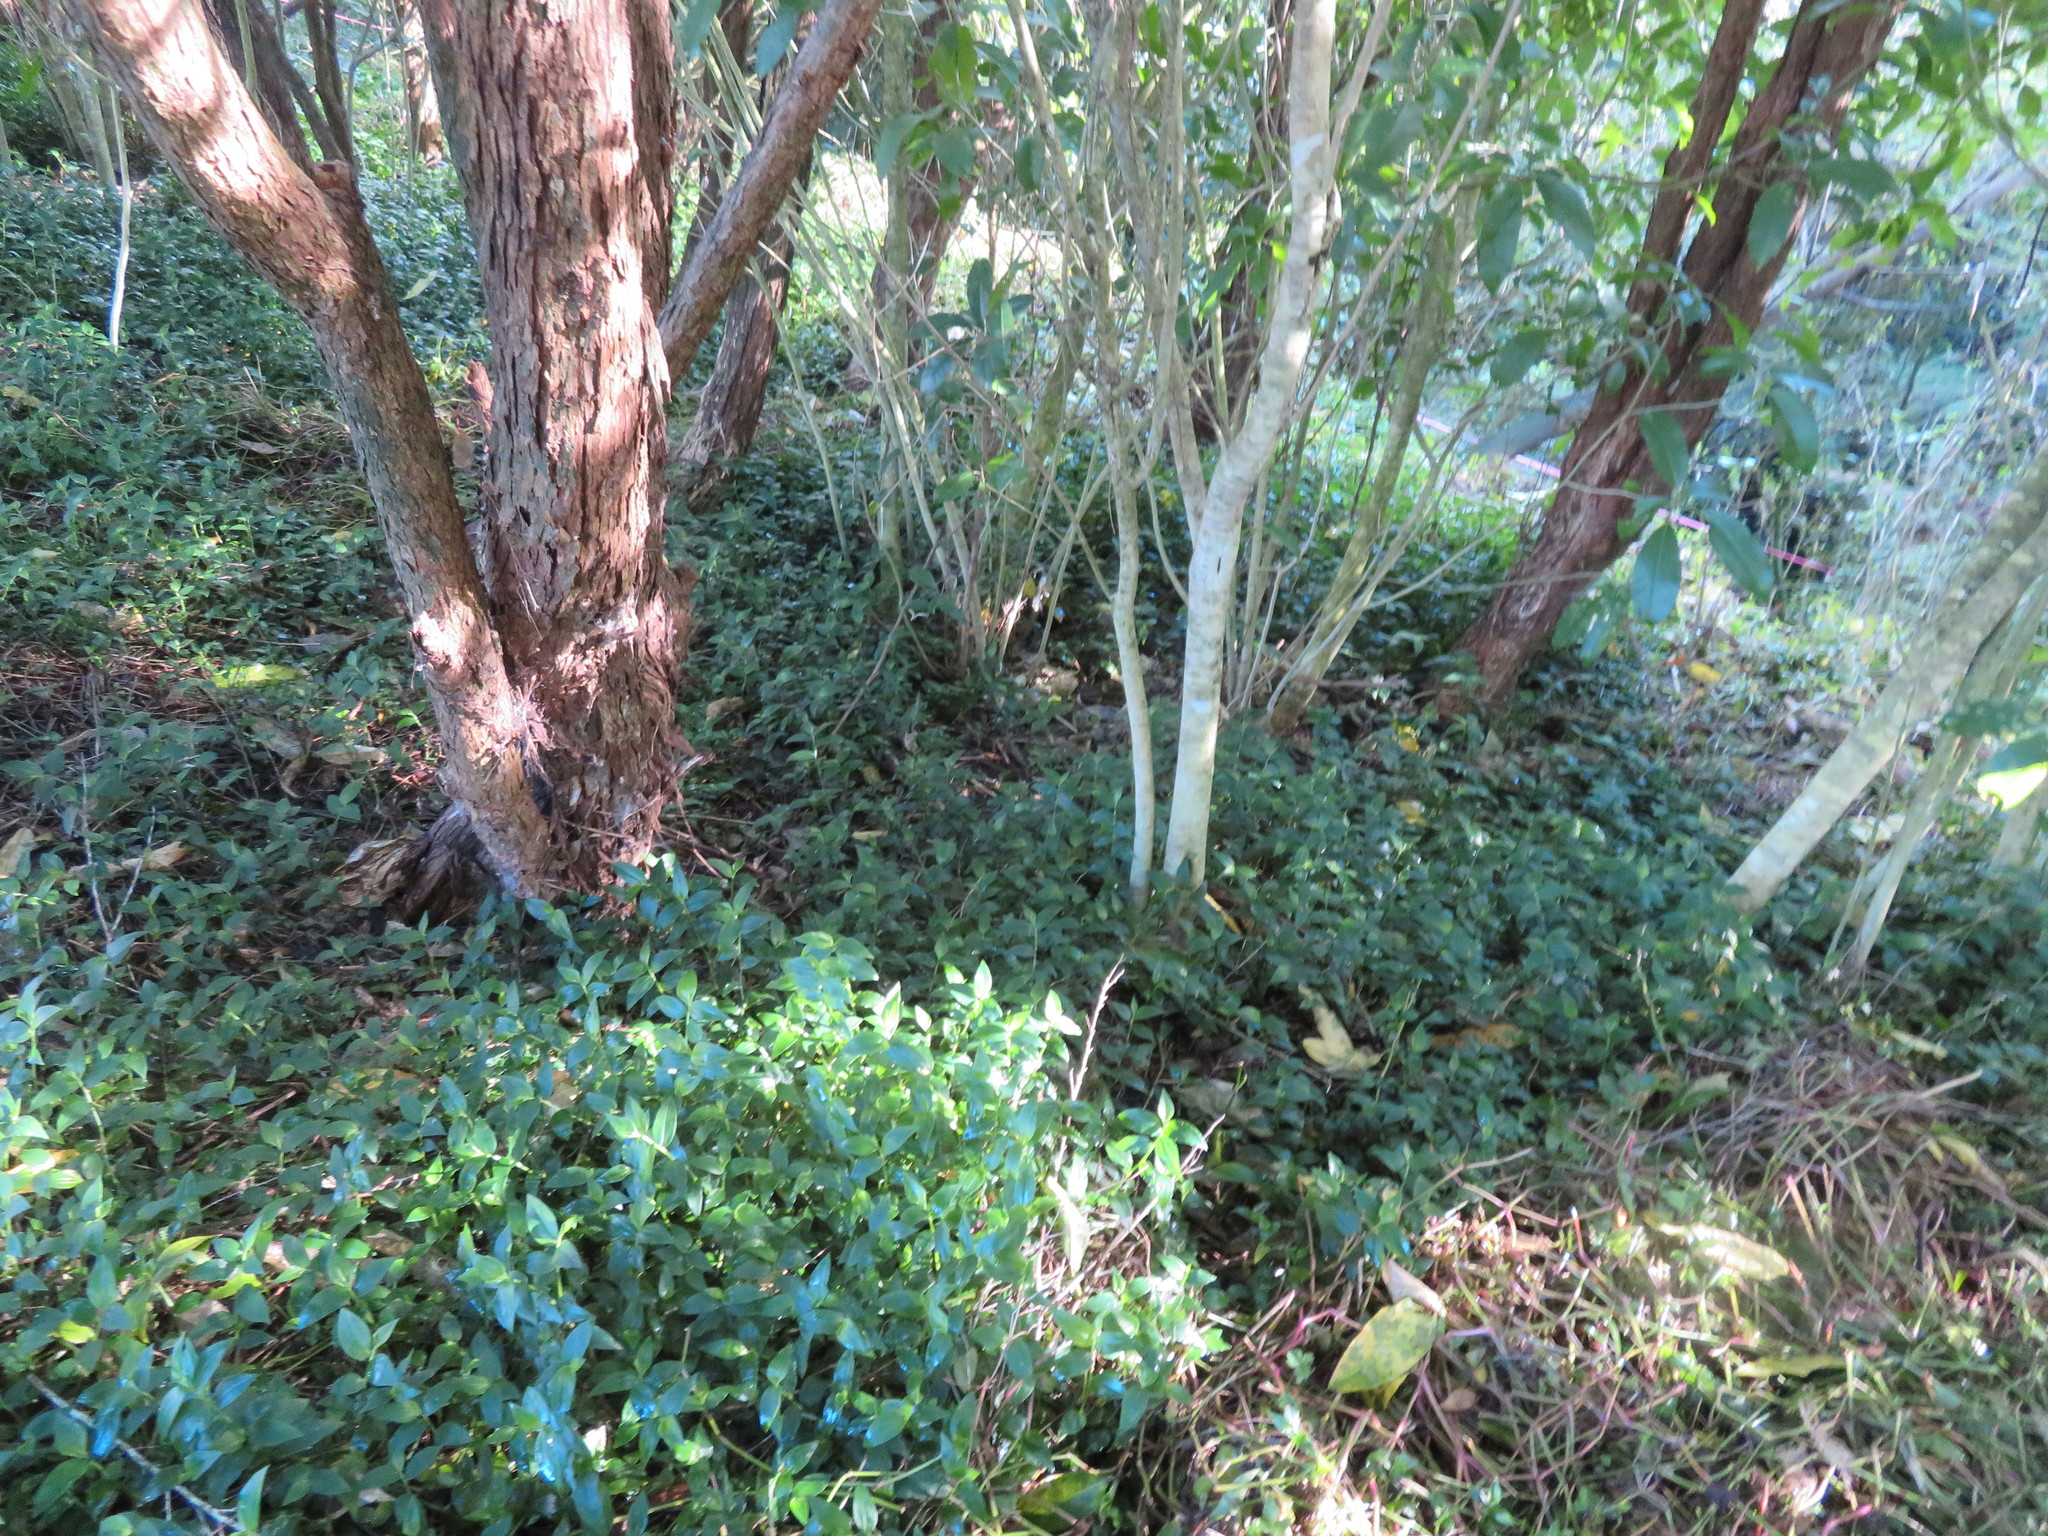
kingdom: Plantae
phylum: Tracheophyta
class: Liliopsida
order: Commelinales
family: Commelinaceae
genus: Tradescantia
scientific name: Tradescantia fluminensis
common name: Wandering-jew
